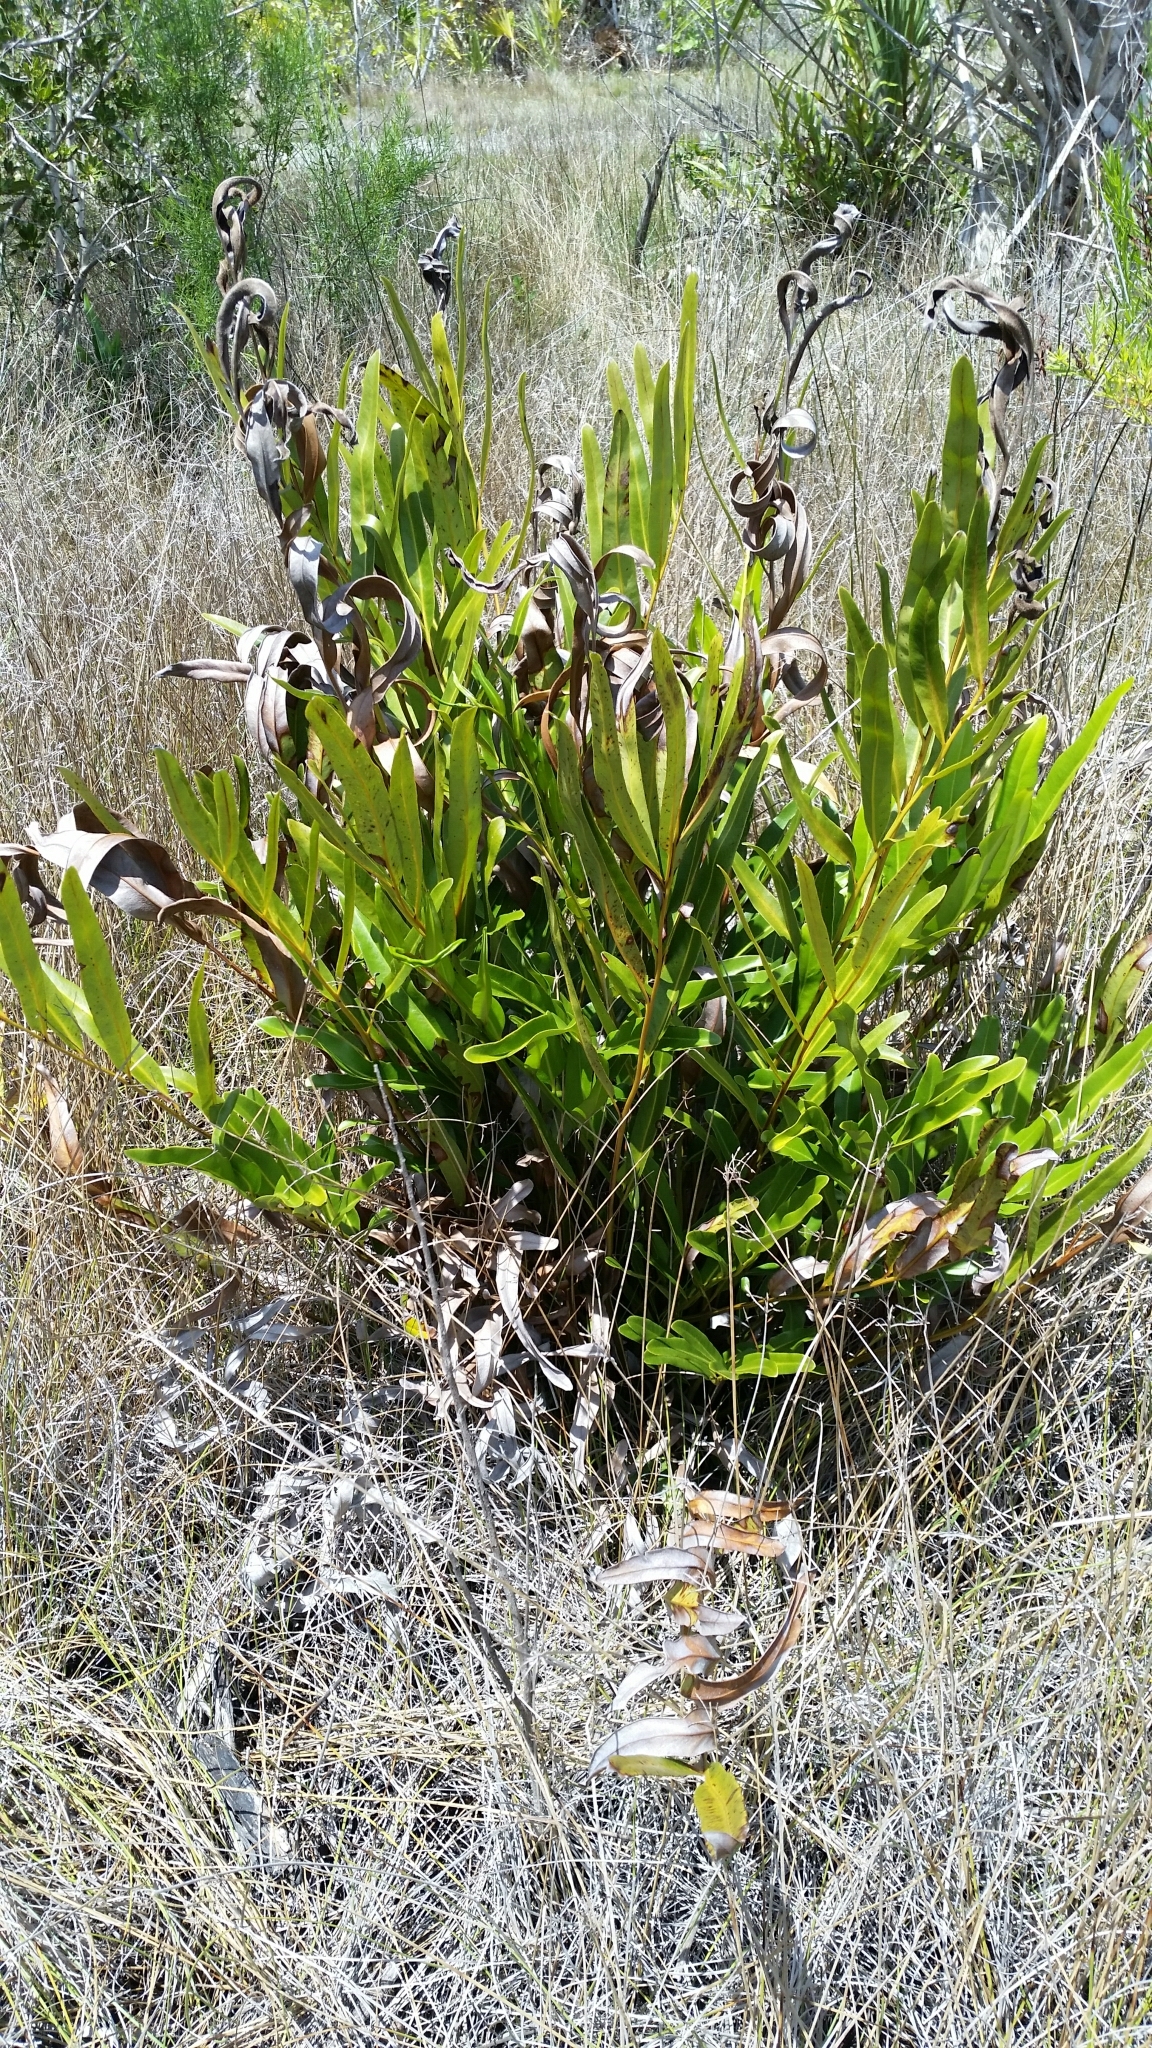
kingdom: Plantae
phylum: Tracheophyta
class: Polypodiopsida
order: Polypodiales
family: Pteridaceae
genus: Acrostichum
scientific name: Acrostichum aureum
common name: Leather fern
